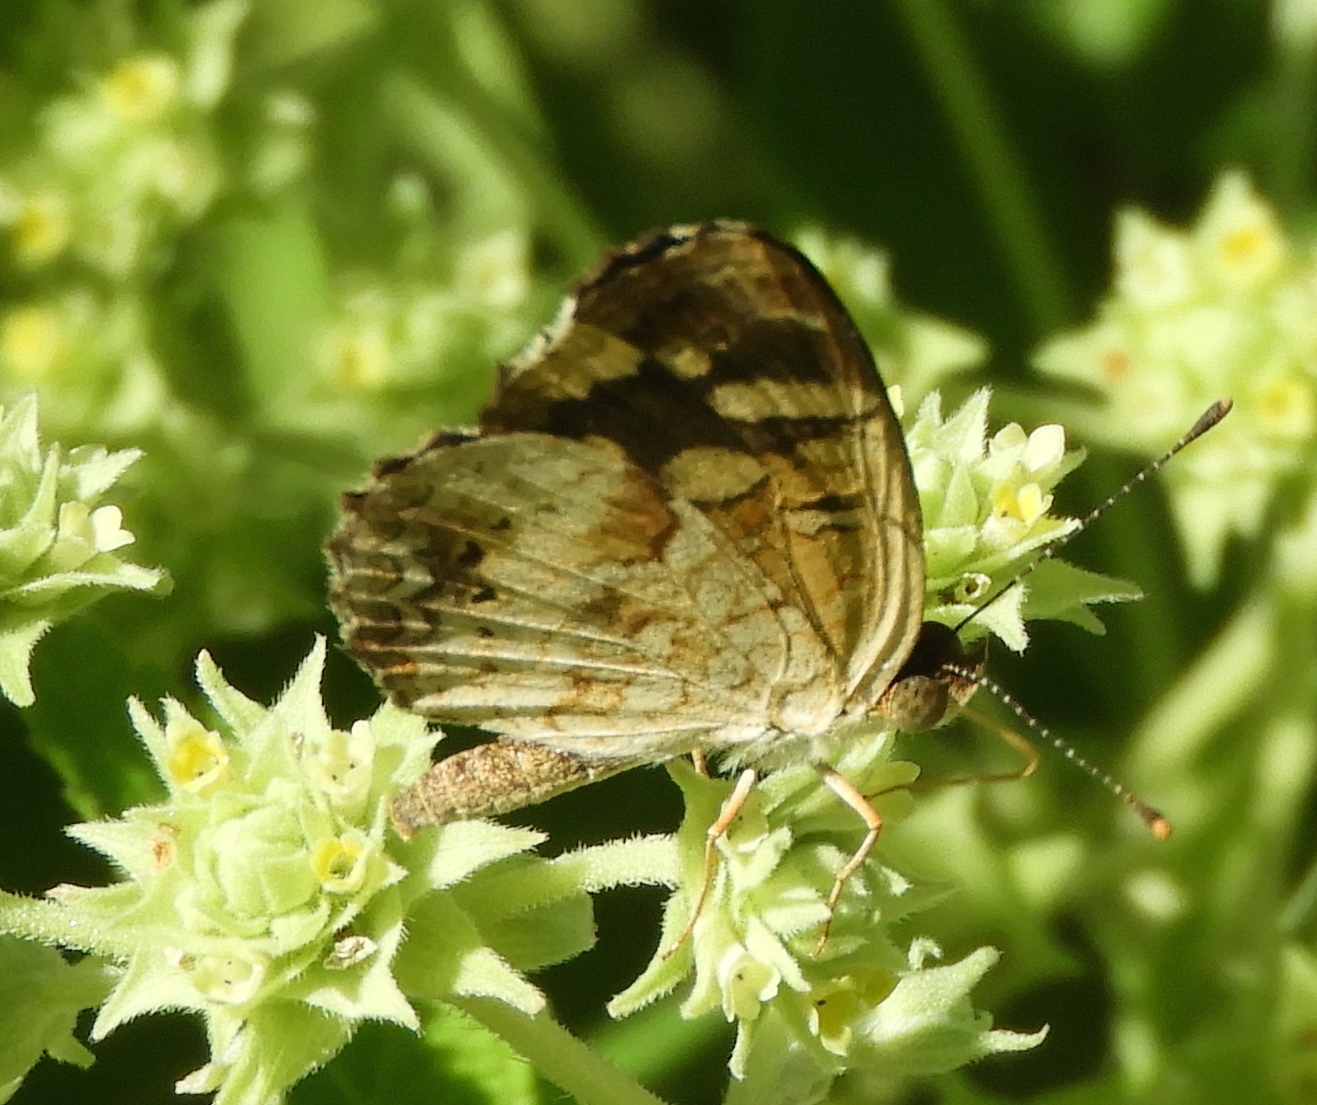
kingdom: Animalia
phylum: Arthropoda
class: Insecta
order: Lepidoptera
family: Nymphalidae
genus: Anthanassa
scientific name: Anthanassa
